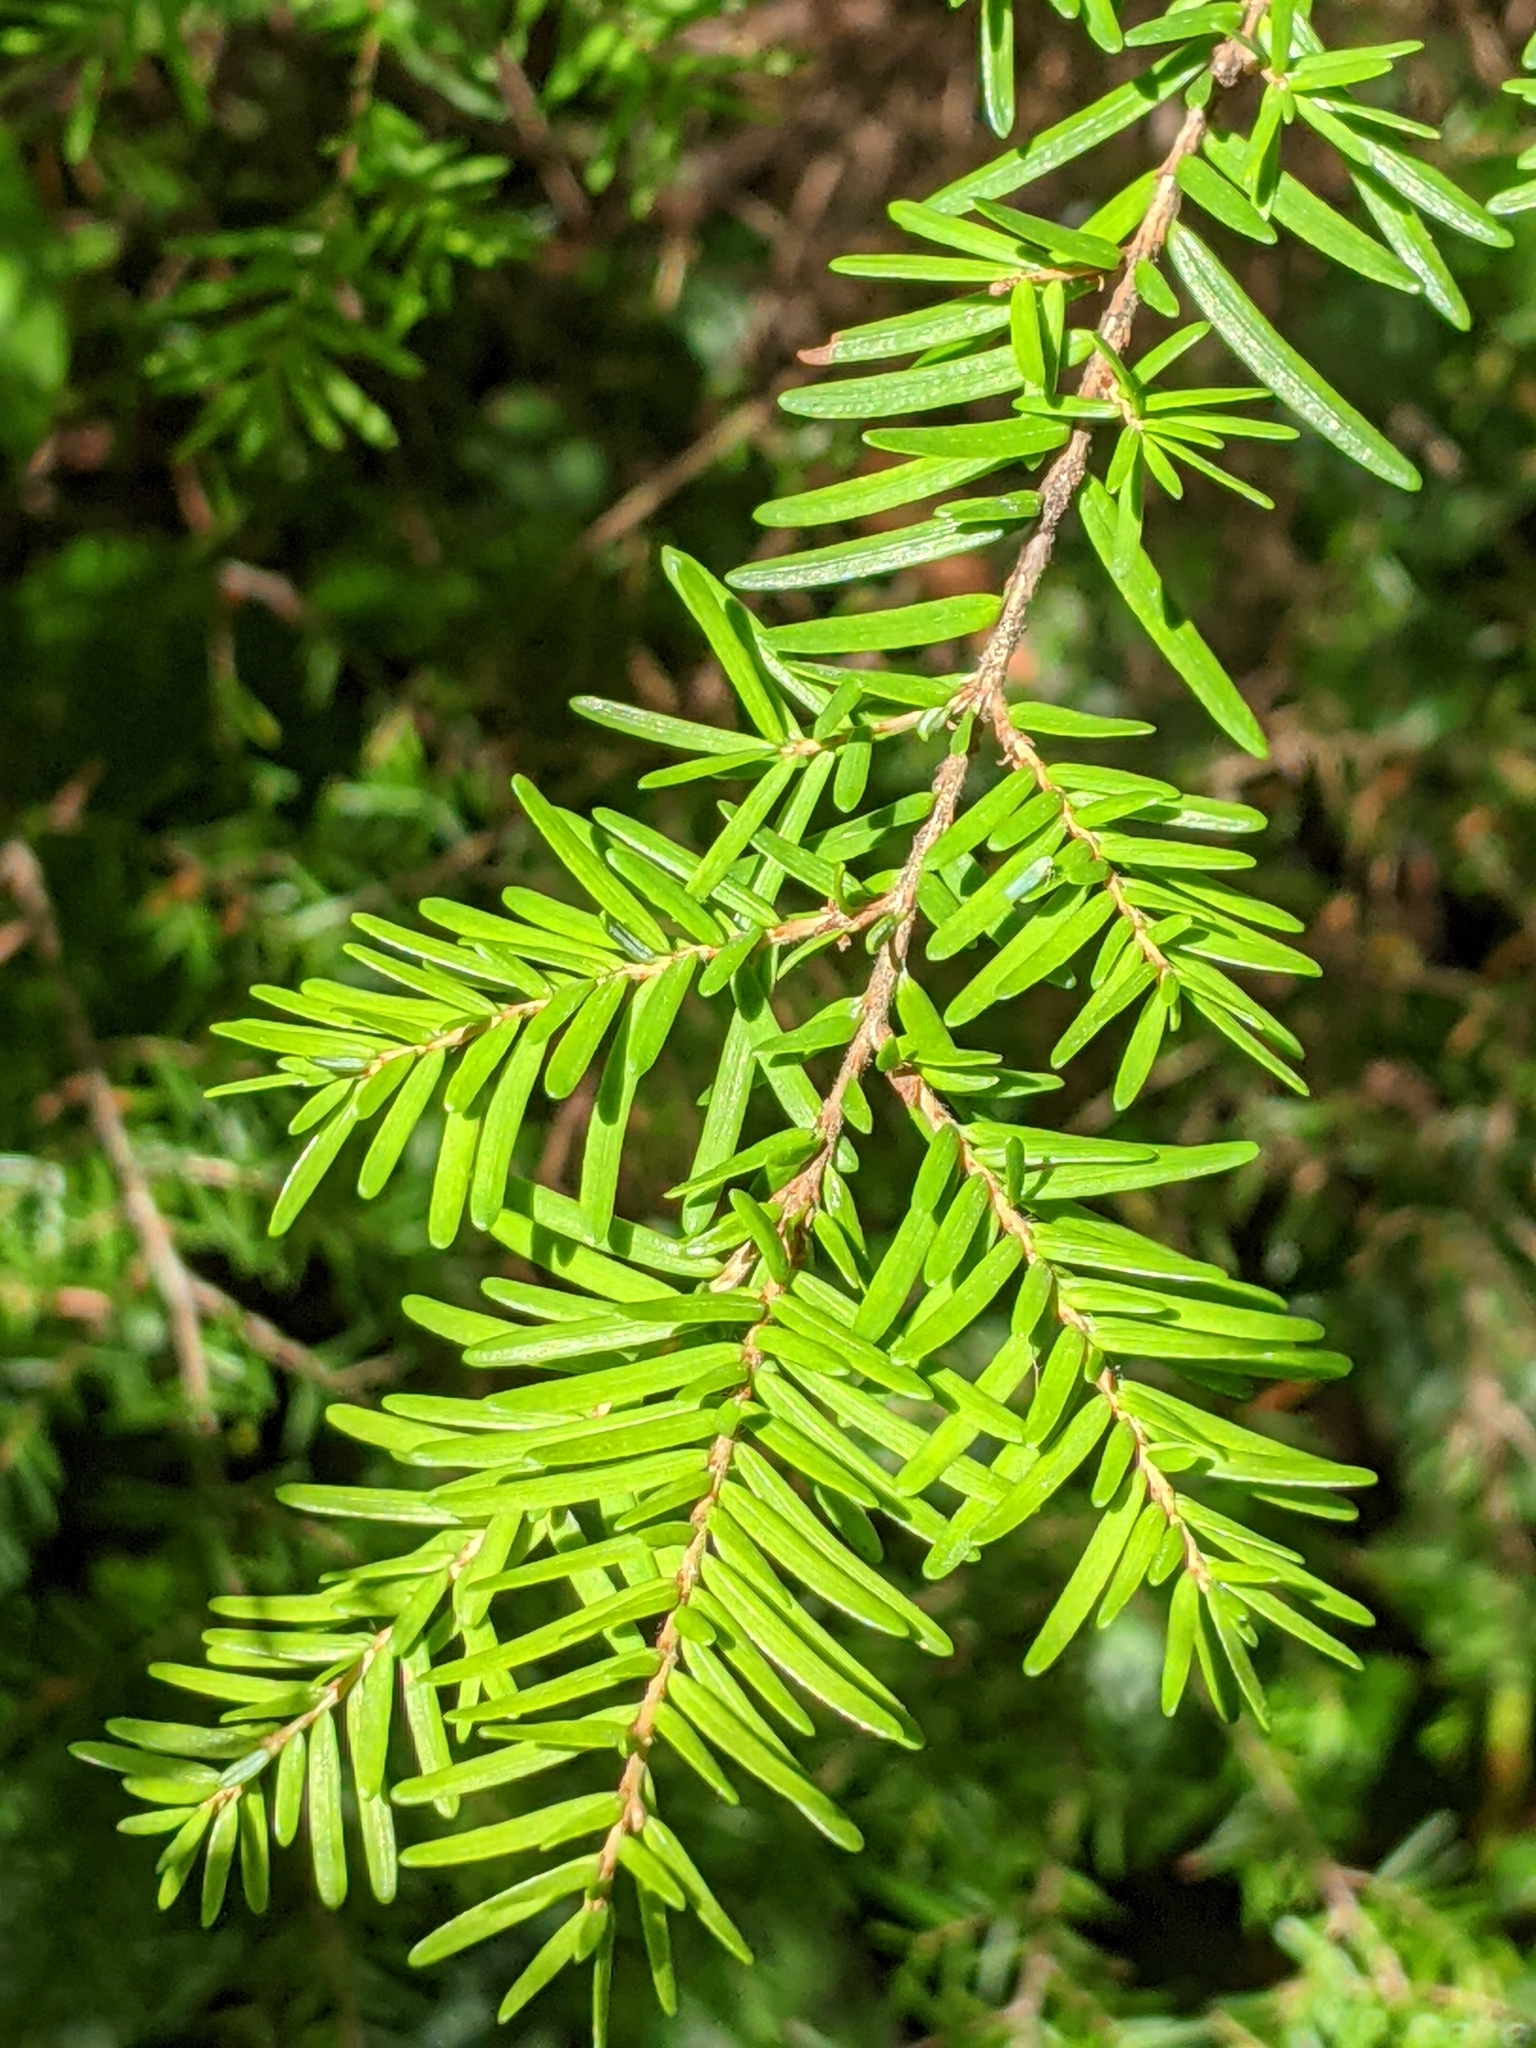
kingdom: Plantae
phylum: Tracheophyta
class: Pinopsida
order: Pinales
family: Pinaceae
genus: Tsuga
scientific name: Tsuga heterophylla
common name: Western hemlock
